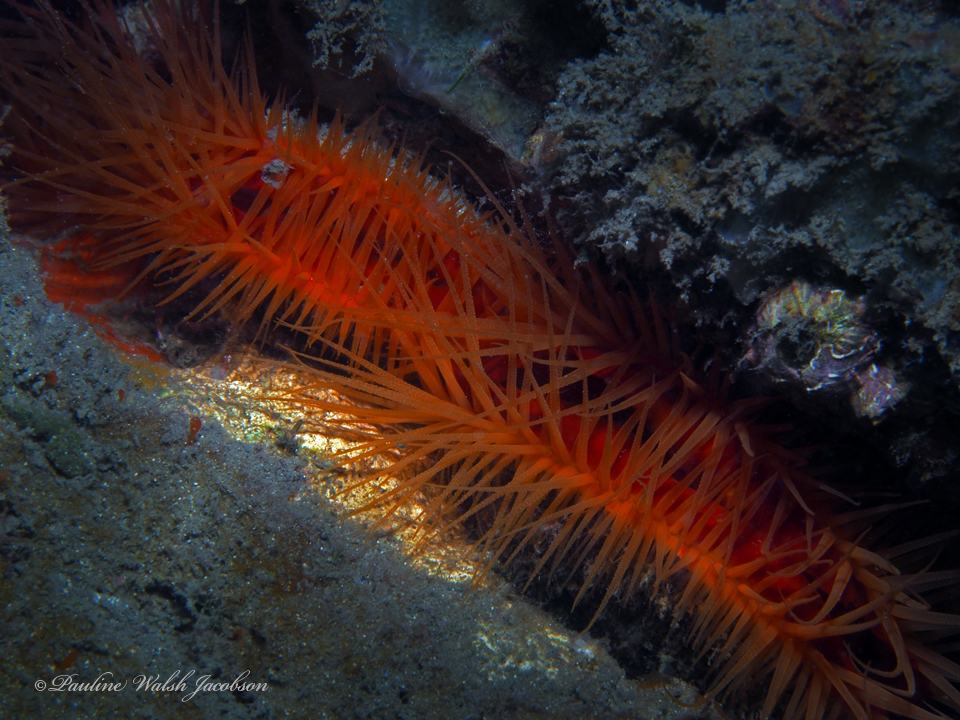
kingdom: Animalia
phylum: Mollusca
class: Bivalvia
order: Limida
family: Limidae
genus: Ctenoides
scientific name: Ctenoides scaber
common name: Rough fileclam
